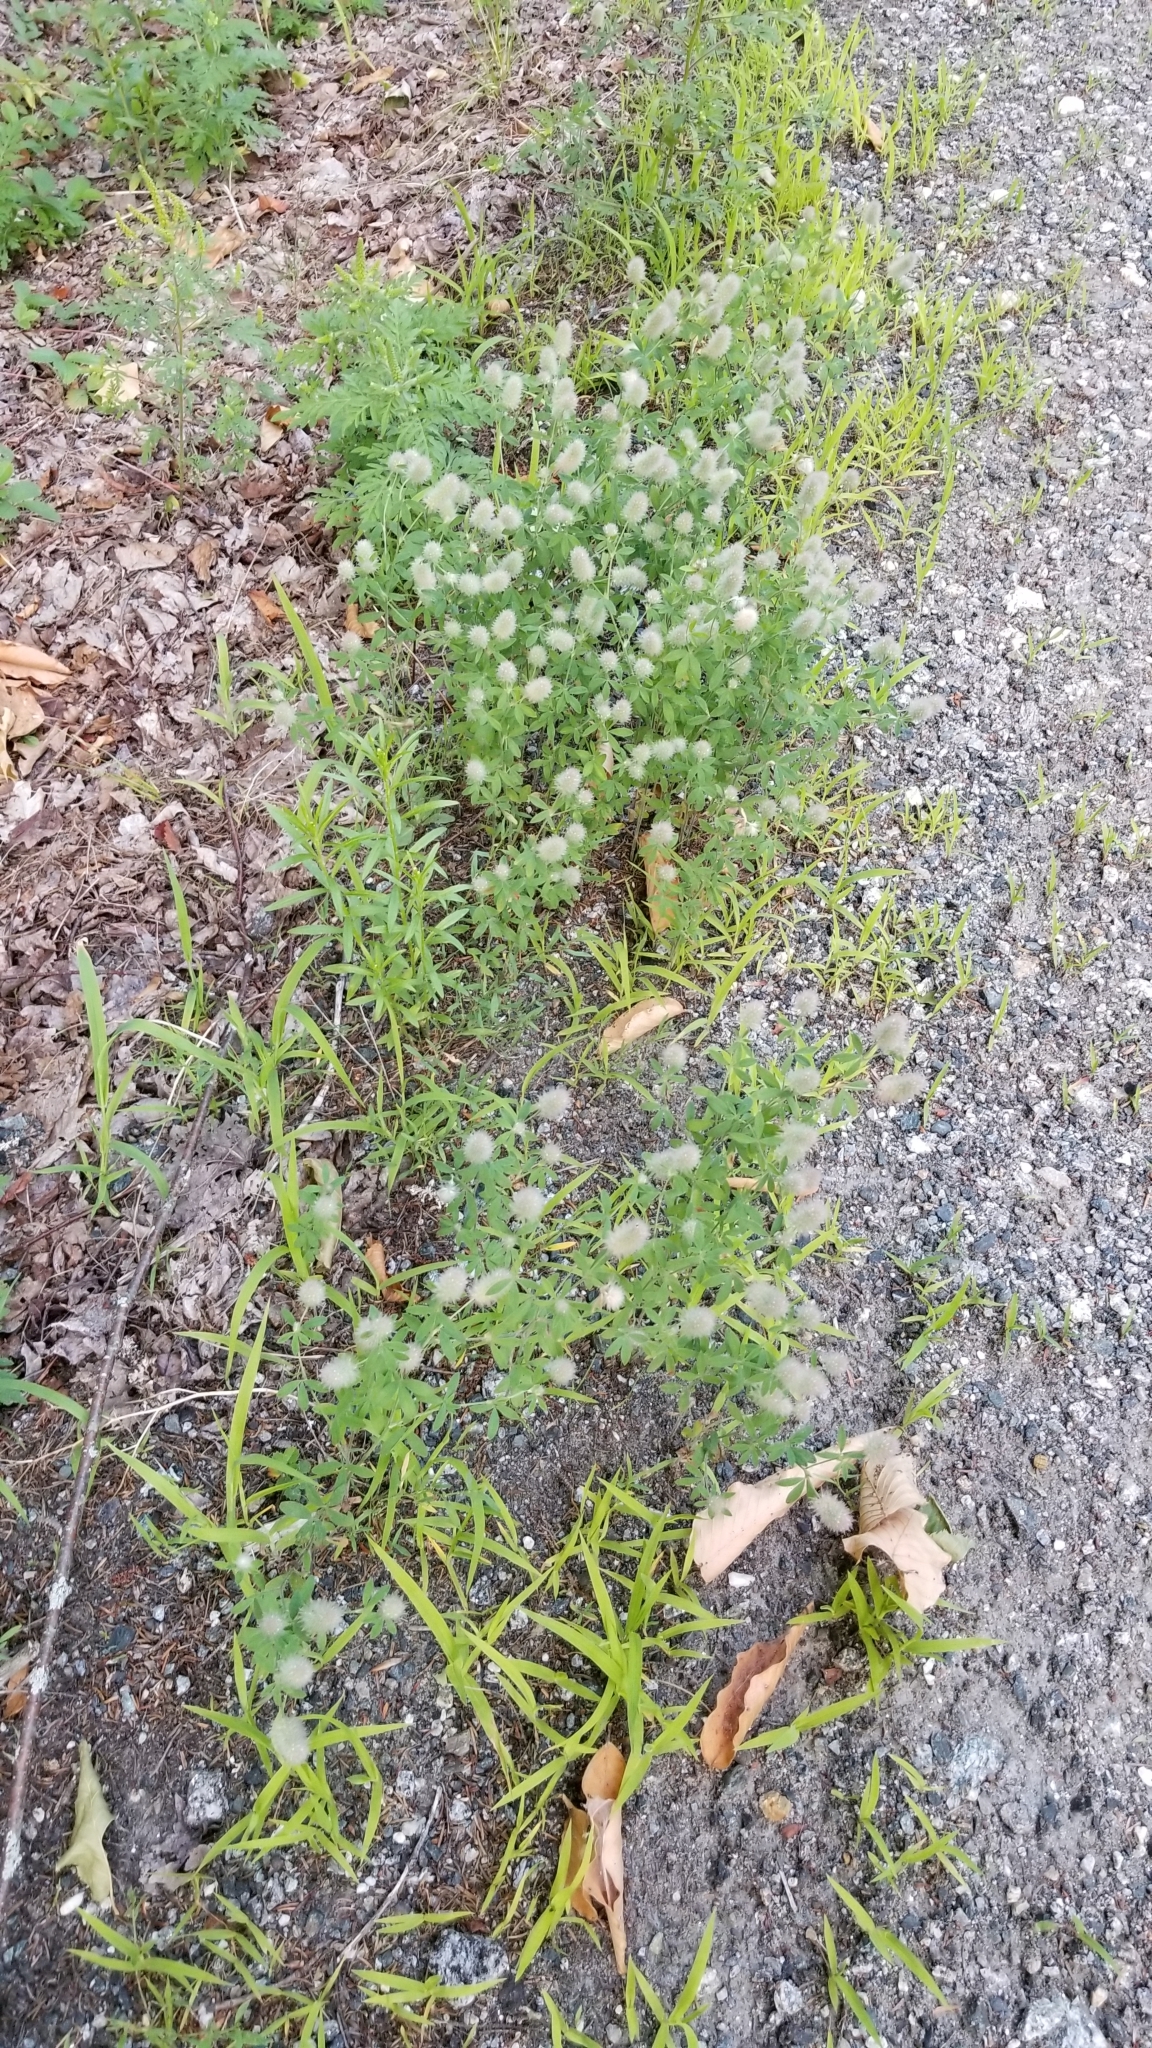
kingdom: Plantae
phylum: Tracheophyta
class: Magnoliopsida
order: Fabales
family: Fabaceae
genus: Trifolium
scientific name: Trifolium arvense
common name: Hare's-foot clover
